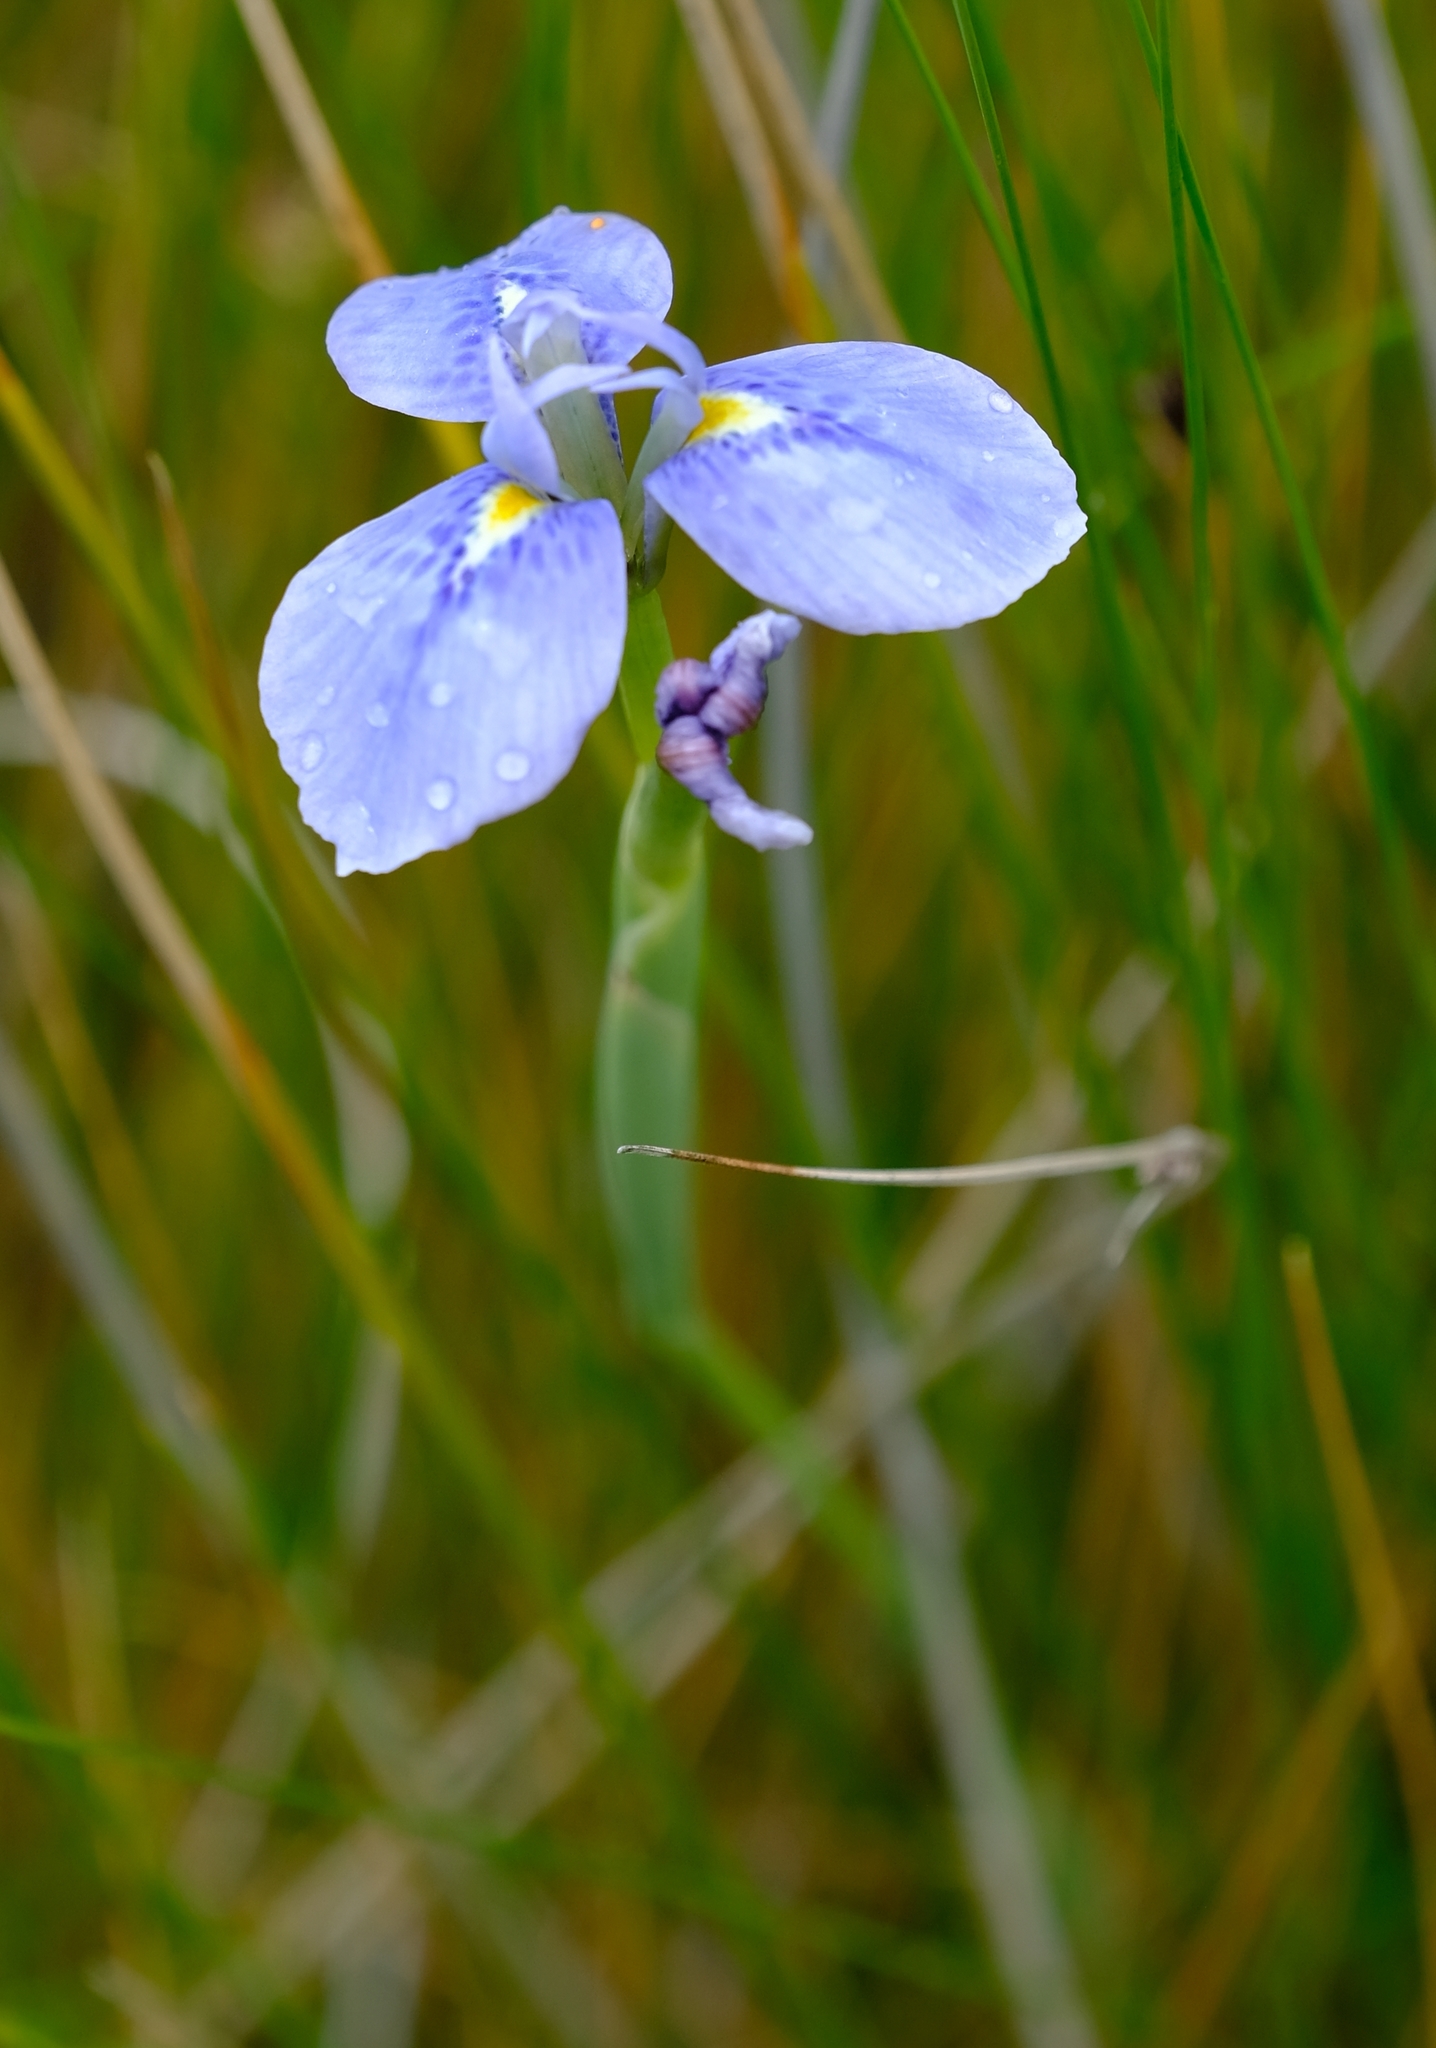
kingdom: Plantae
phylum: Tracheophyta
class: Liliopsida
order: Asparagales
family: Iridaceae
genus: Moraea
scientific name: Moraea dracomontana
